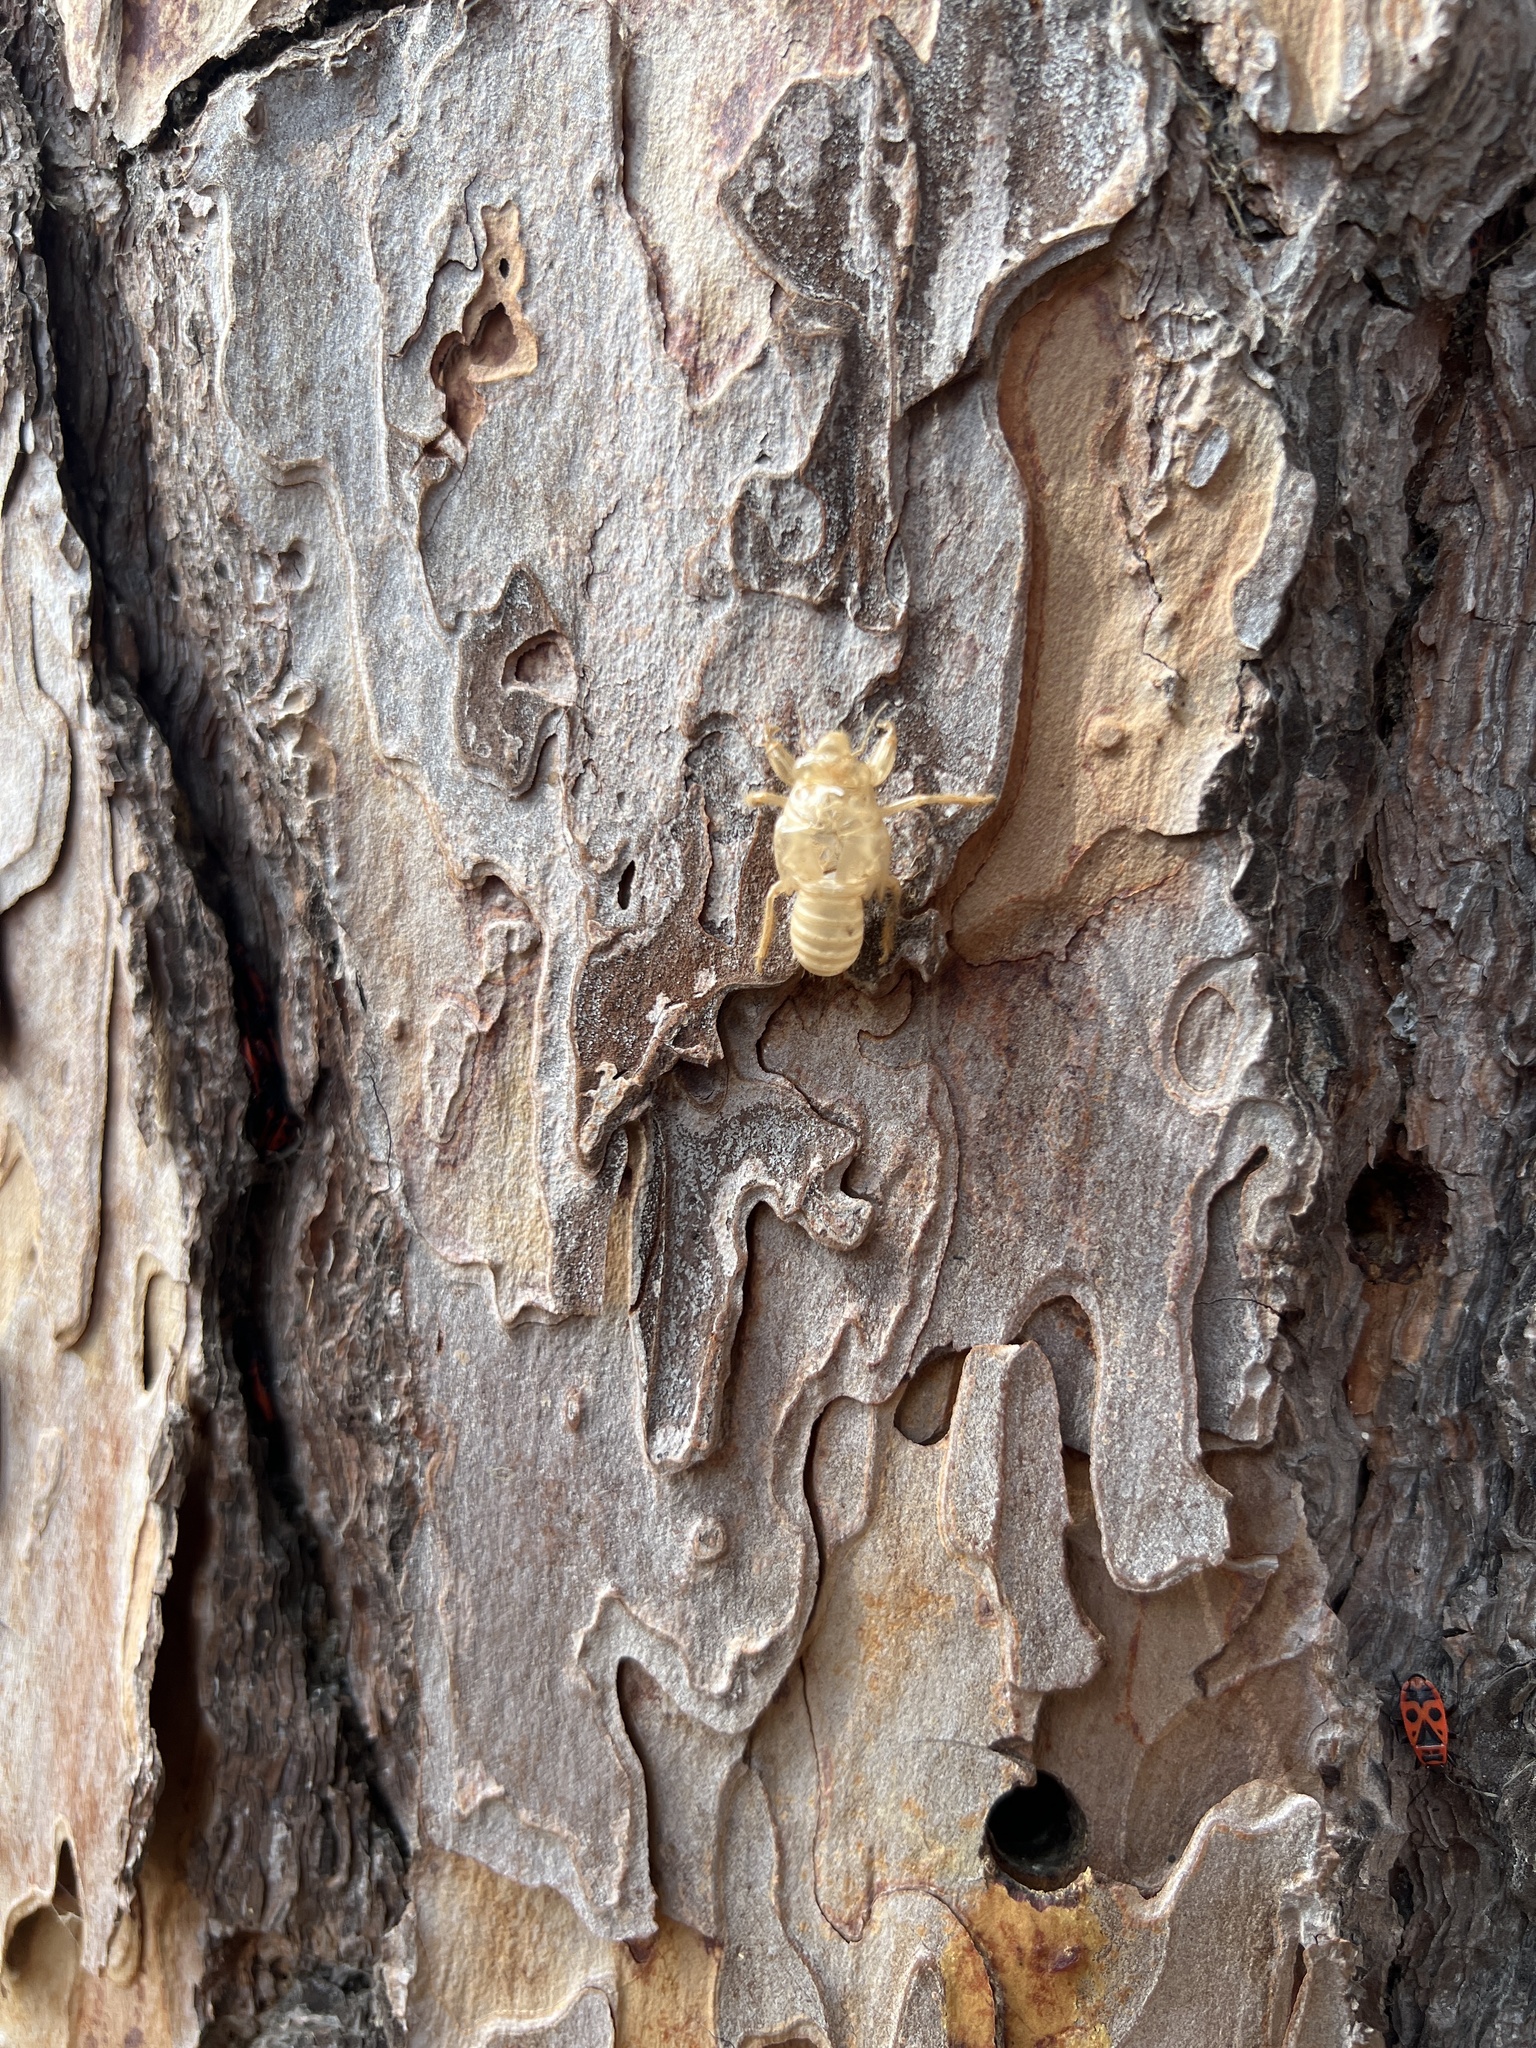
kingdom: Animalia
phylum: Arthropoda
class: Insecta
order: Hemiptera
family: Cicadidae
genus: Cicada
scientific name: Cicada orni
